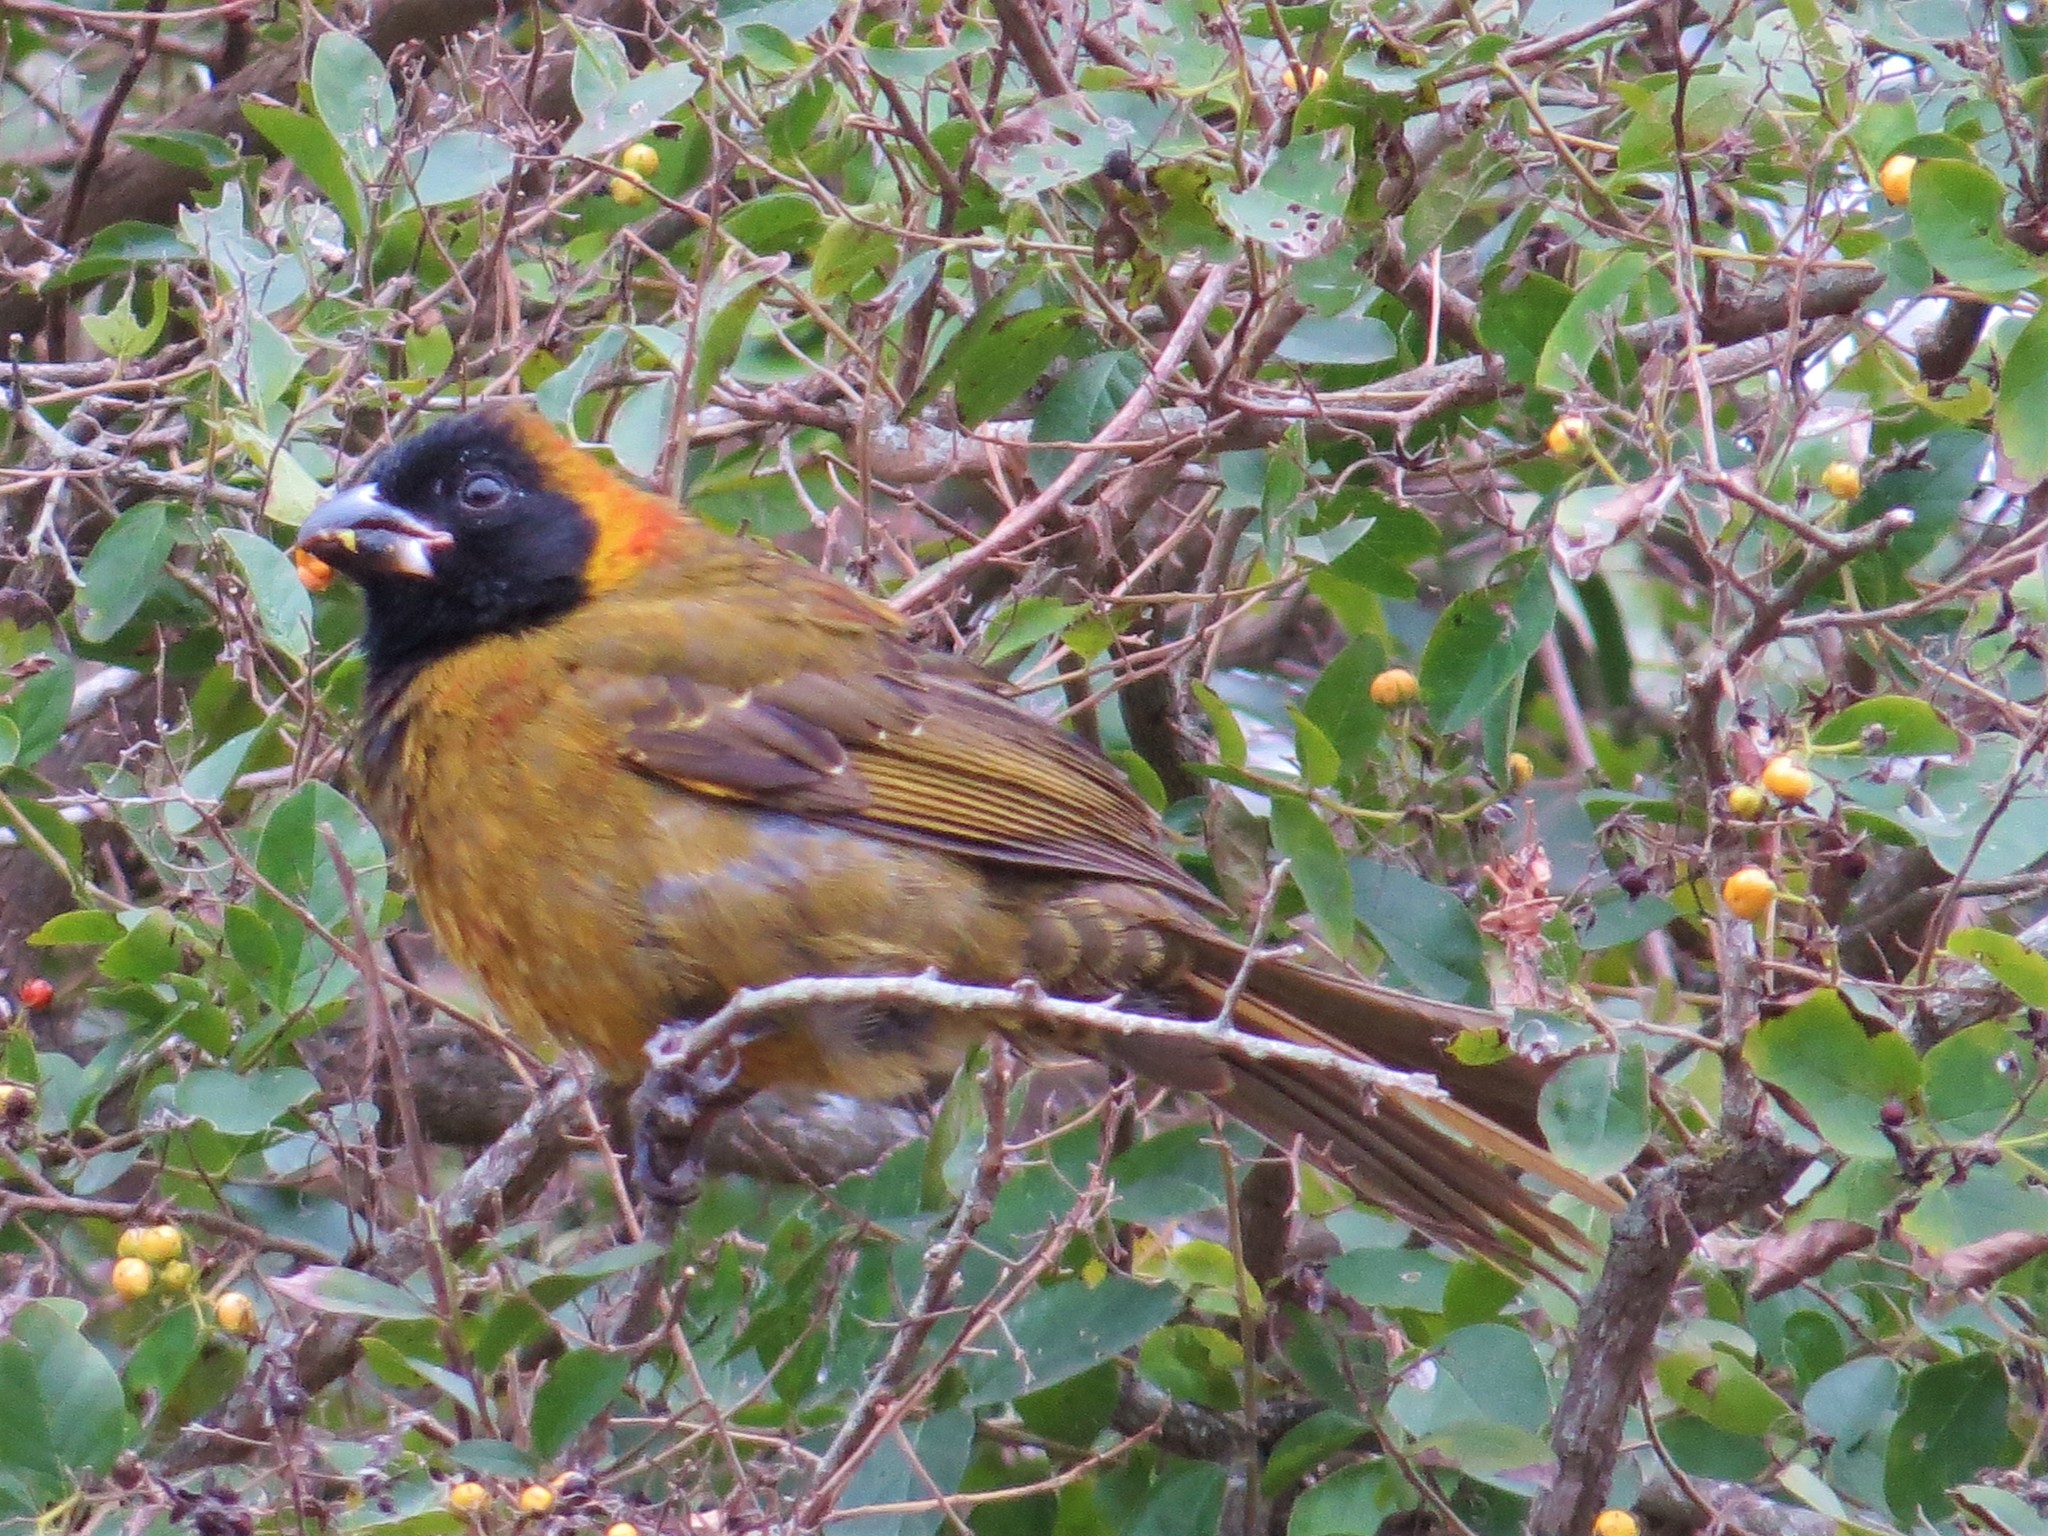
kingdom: Animalia
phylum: Chordata
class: Aves
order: Passeriformes
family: Cardinalidae
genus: Rhodothraupis
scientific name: Rhodothraupis celaeno
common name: Crimson-collared grosbeak
